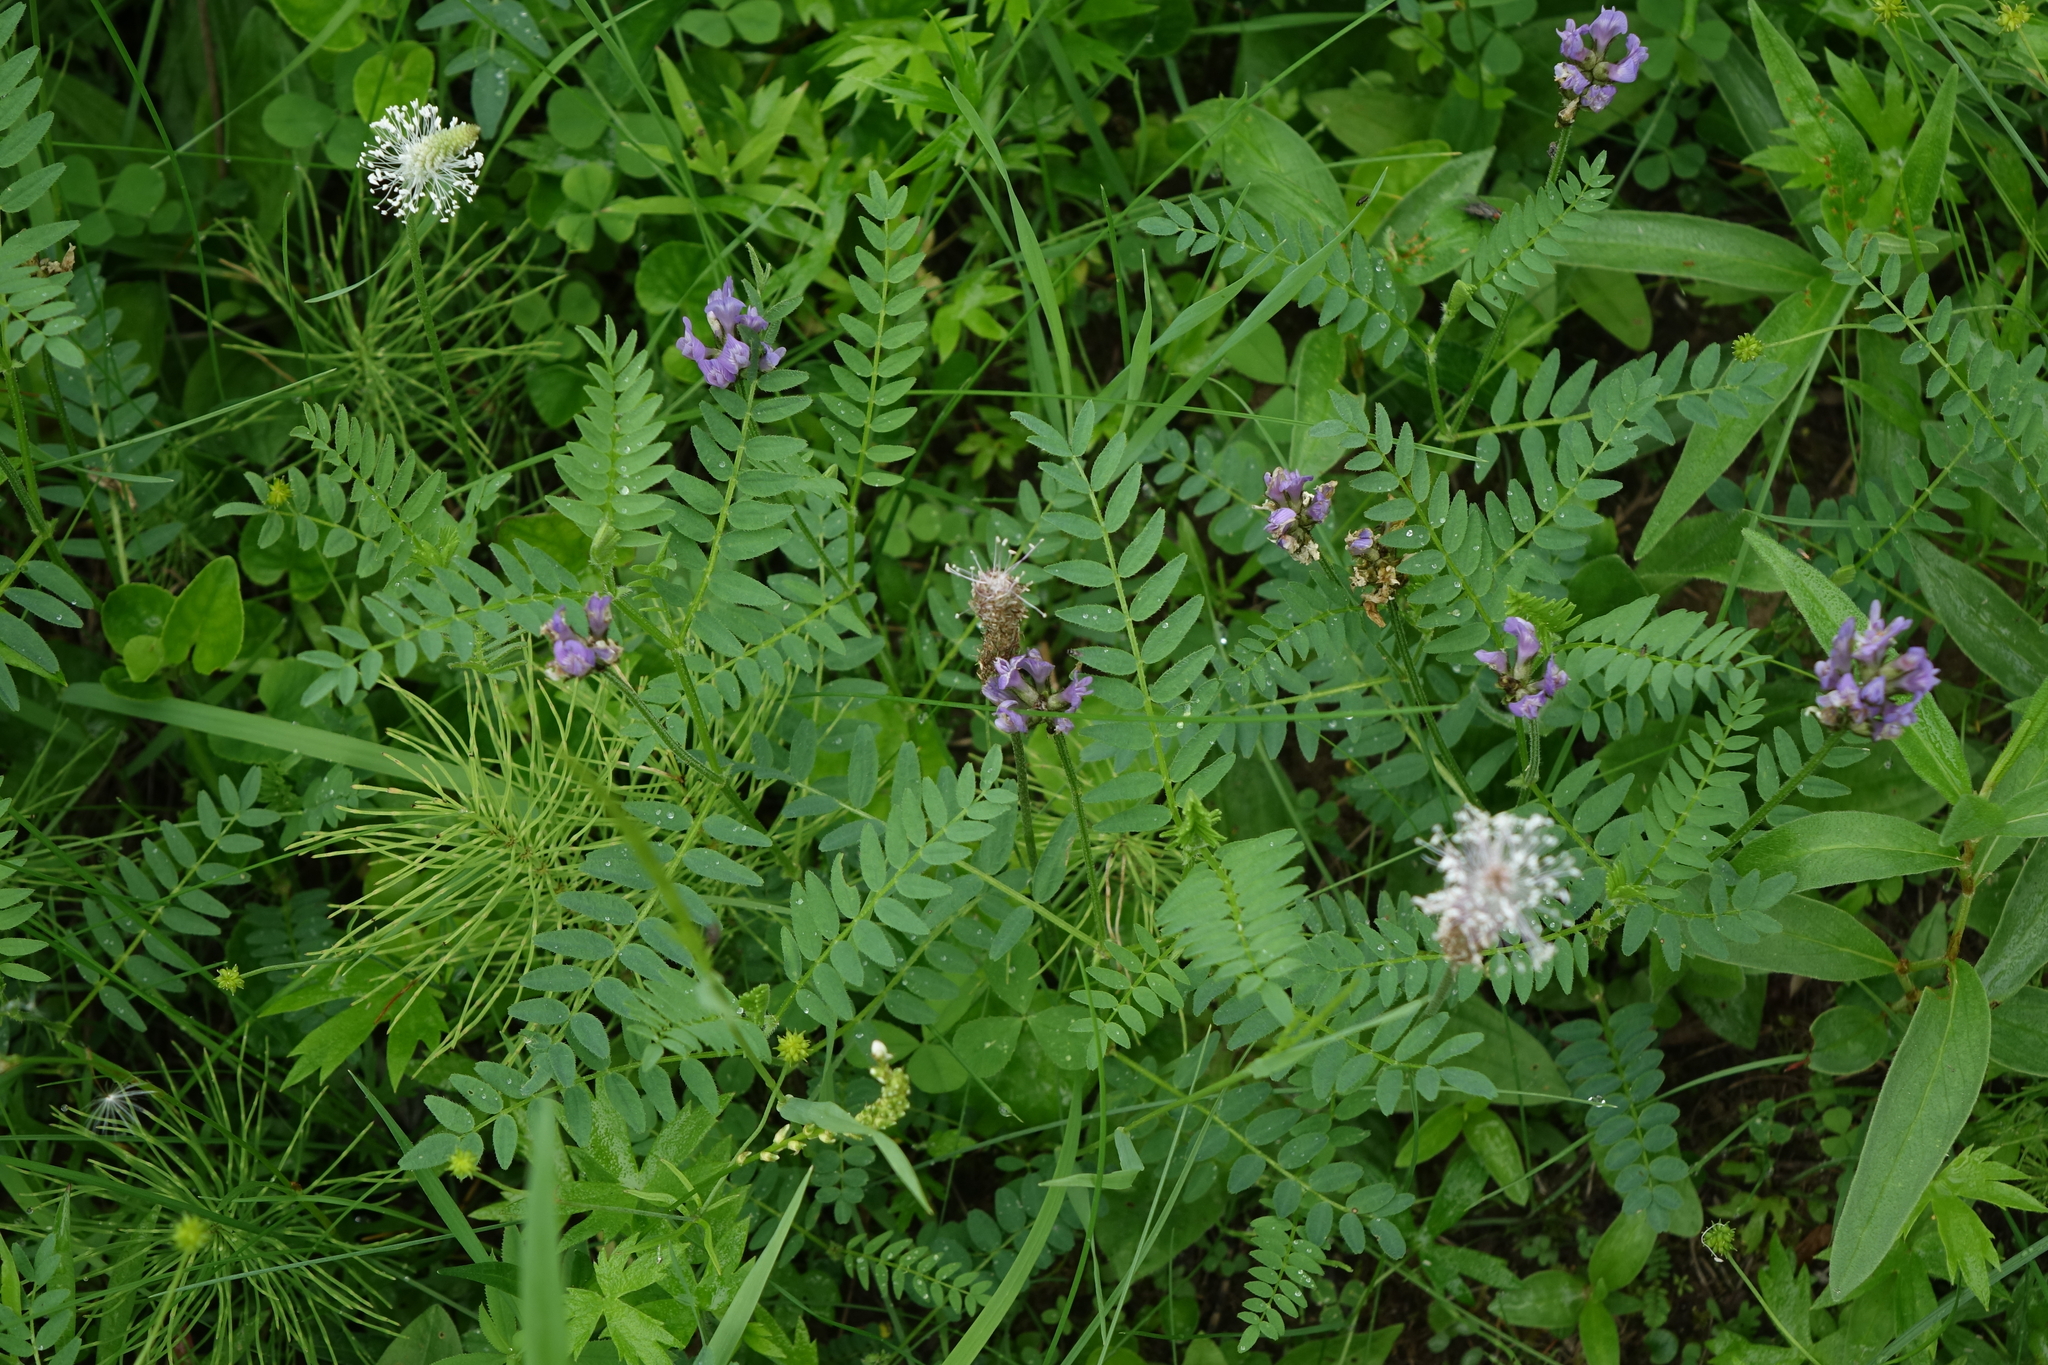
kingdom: Plantae
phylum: Tracheophyta
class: Magnoliopsida
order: Fabales
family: Fabaceae
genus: Astragalus
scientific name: Astragalus danicus
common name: Purple milk-vetch
